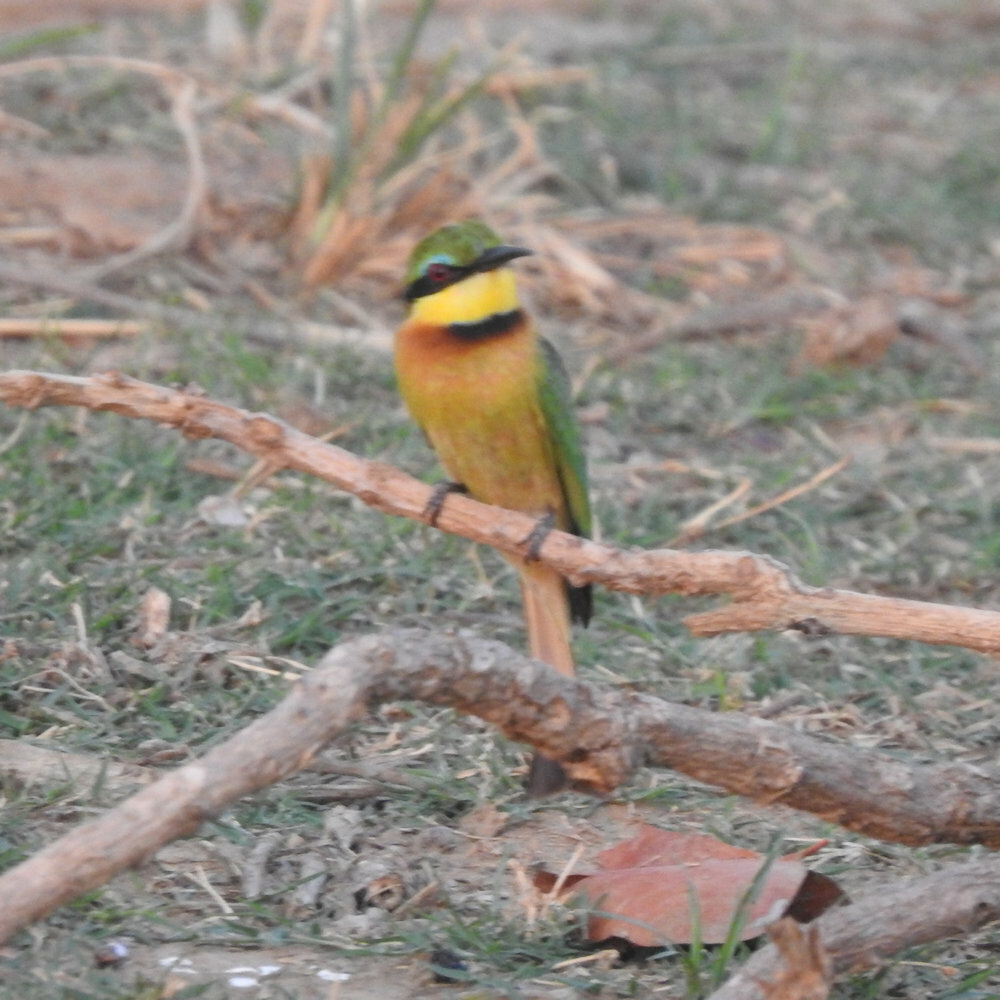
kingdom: Animalia
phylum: Chordata
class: Aves
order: Coraciiformes
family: Meropidae
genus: Merops
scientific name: Merops pusillus
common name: Little bee-eater
